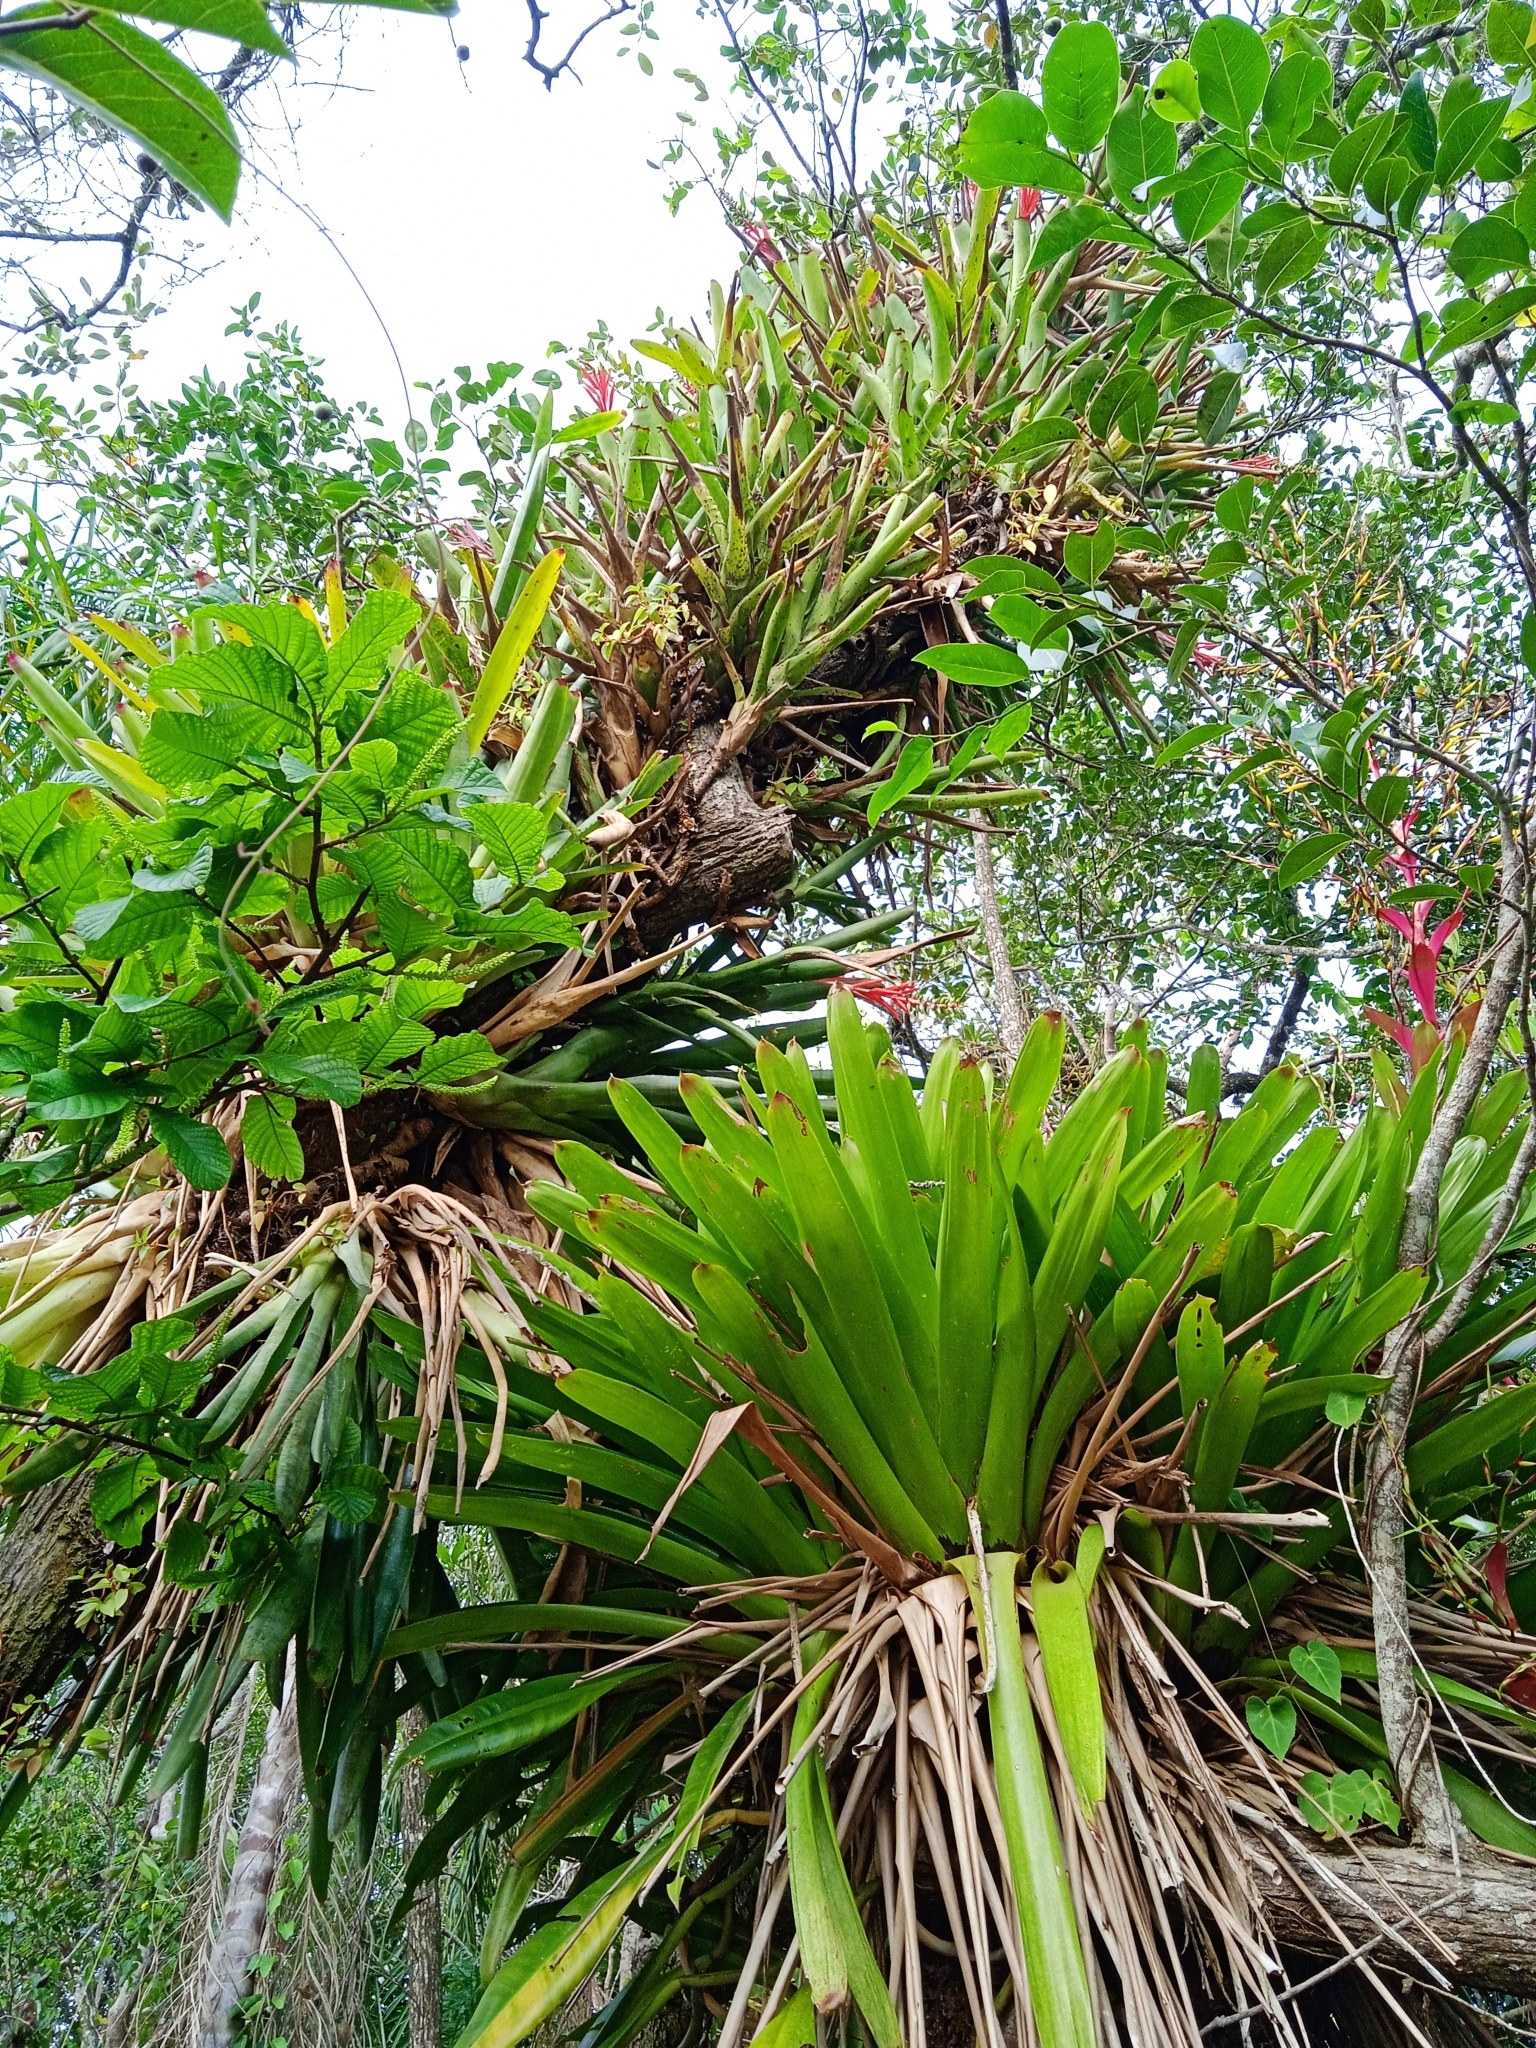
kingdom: Plantae
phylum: Tracheophyta
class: Liliopsida
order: Poales
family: Bromeliaceae
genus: Vriesea
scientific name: Vriesea philippocoburgi
